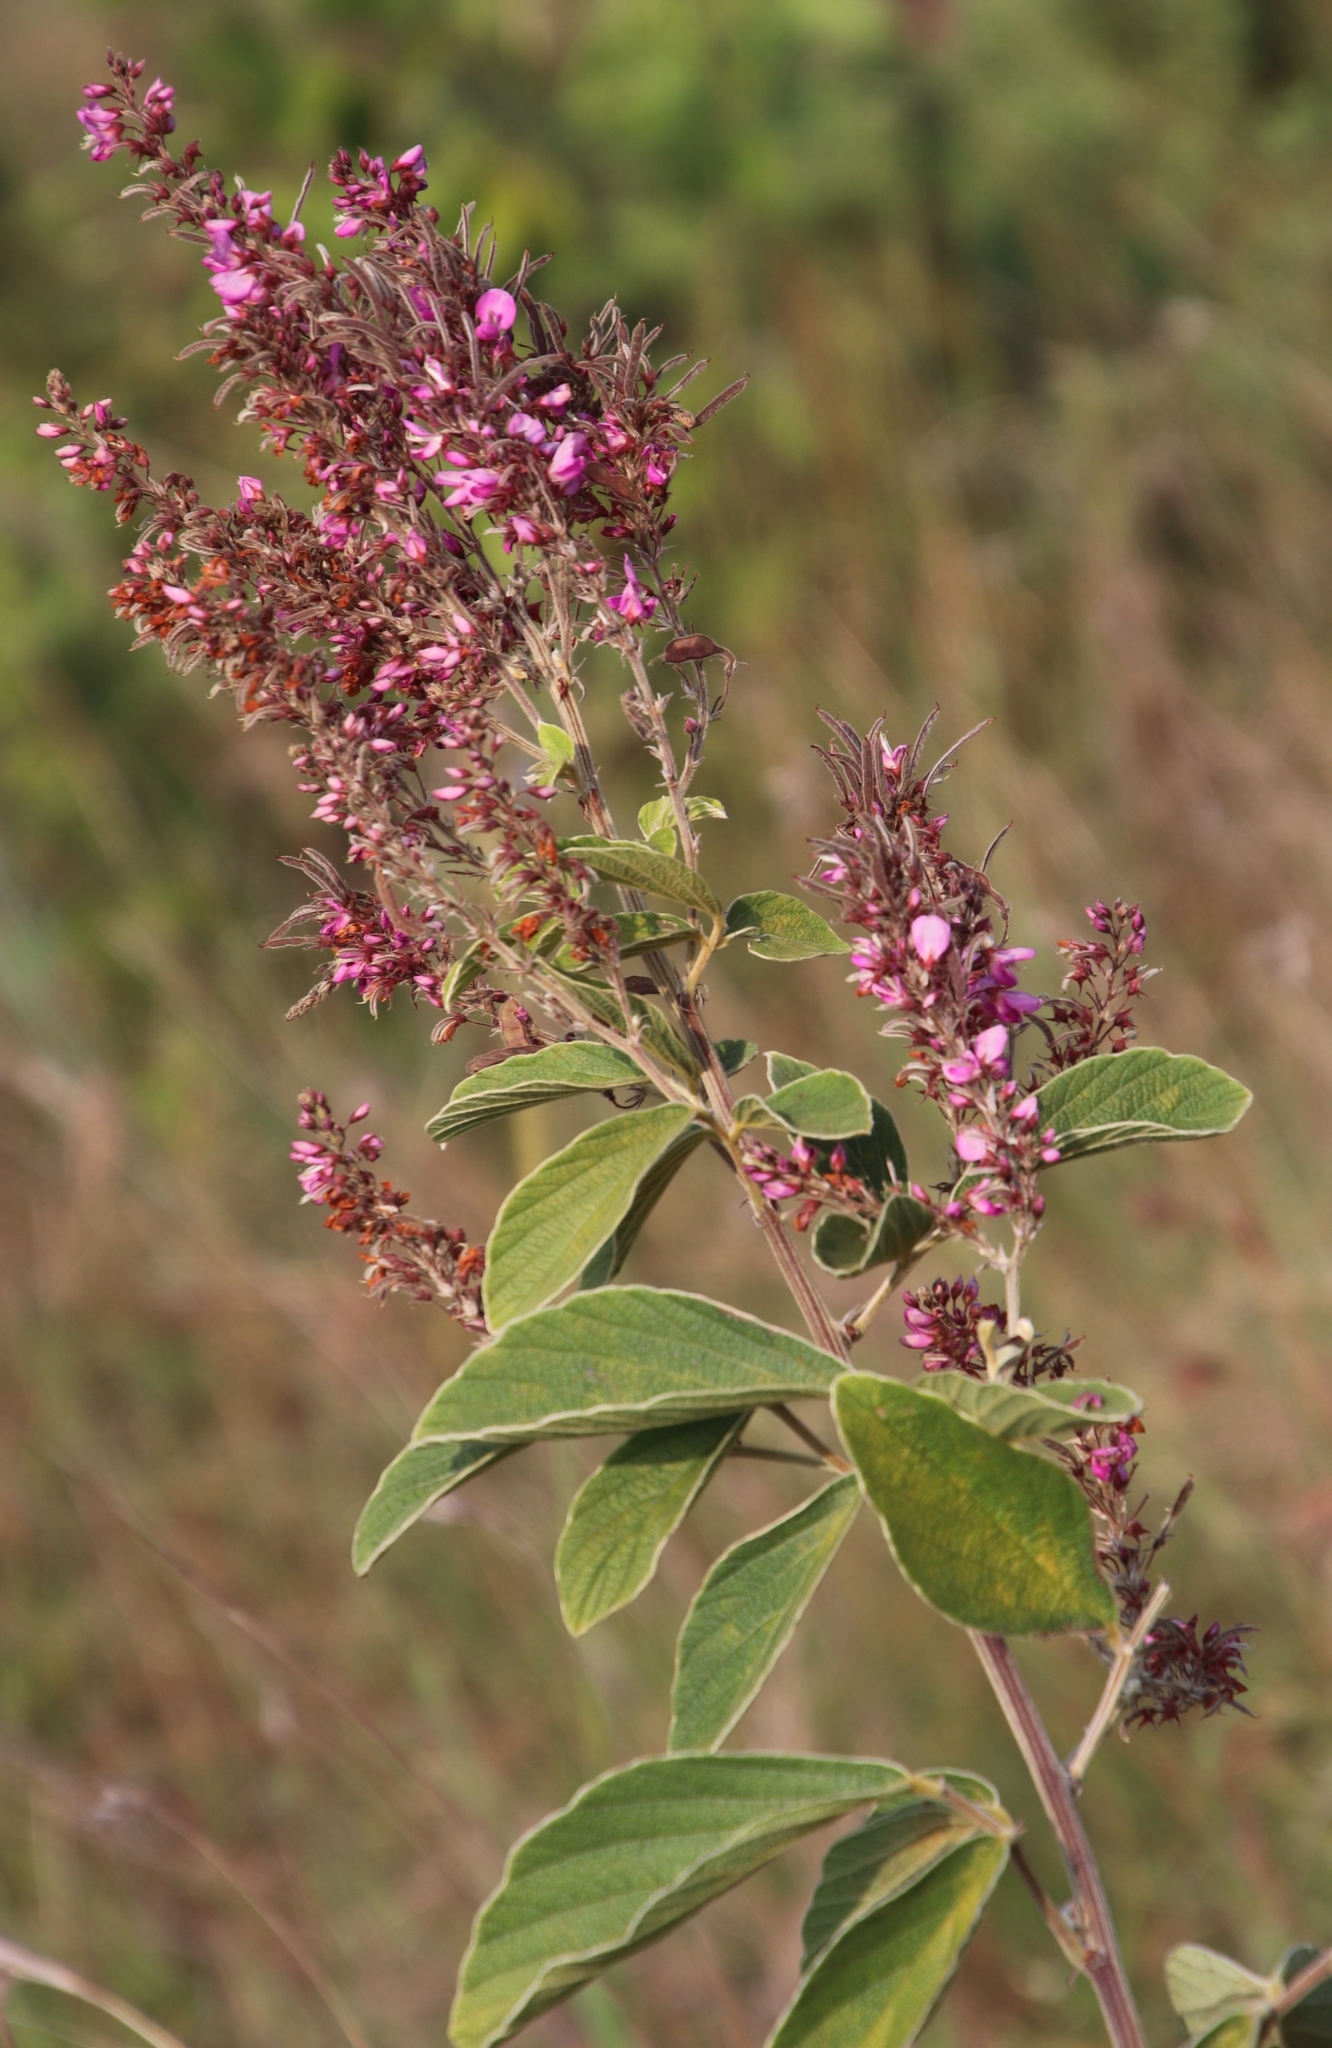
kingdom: Plantae
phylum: Tracheophyta
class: Magnoliopsida
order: Fabales
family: Fabaceae
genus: Pseudarthria
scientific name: Pseudarthria hookeri
